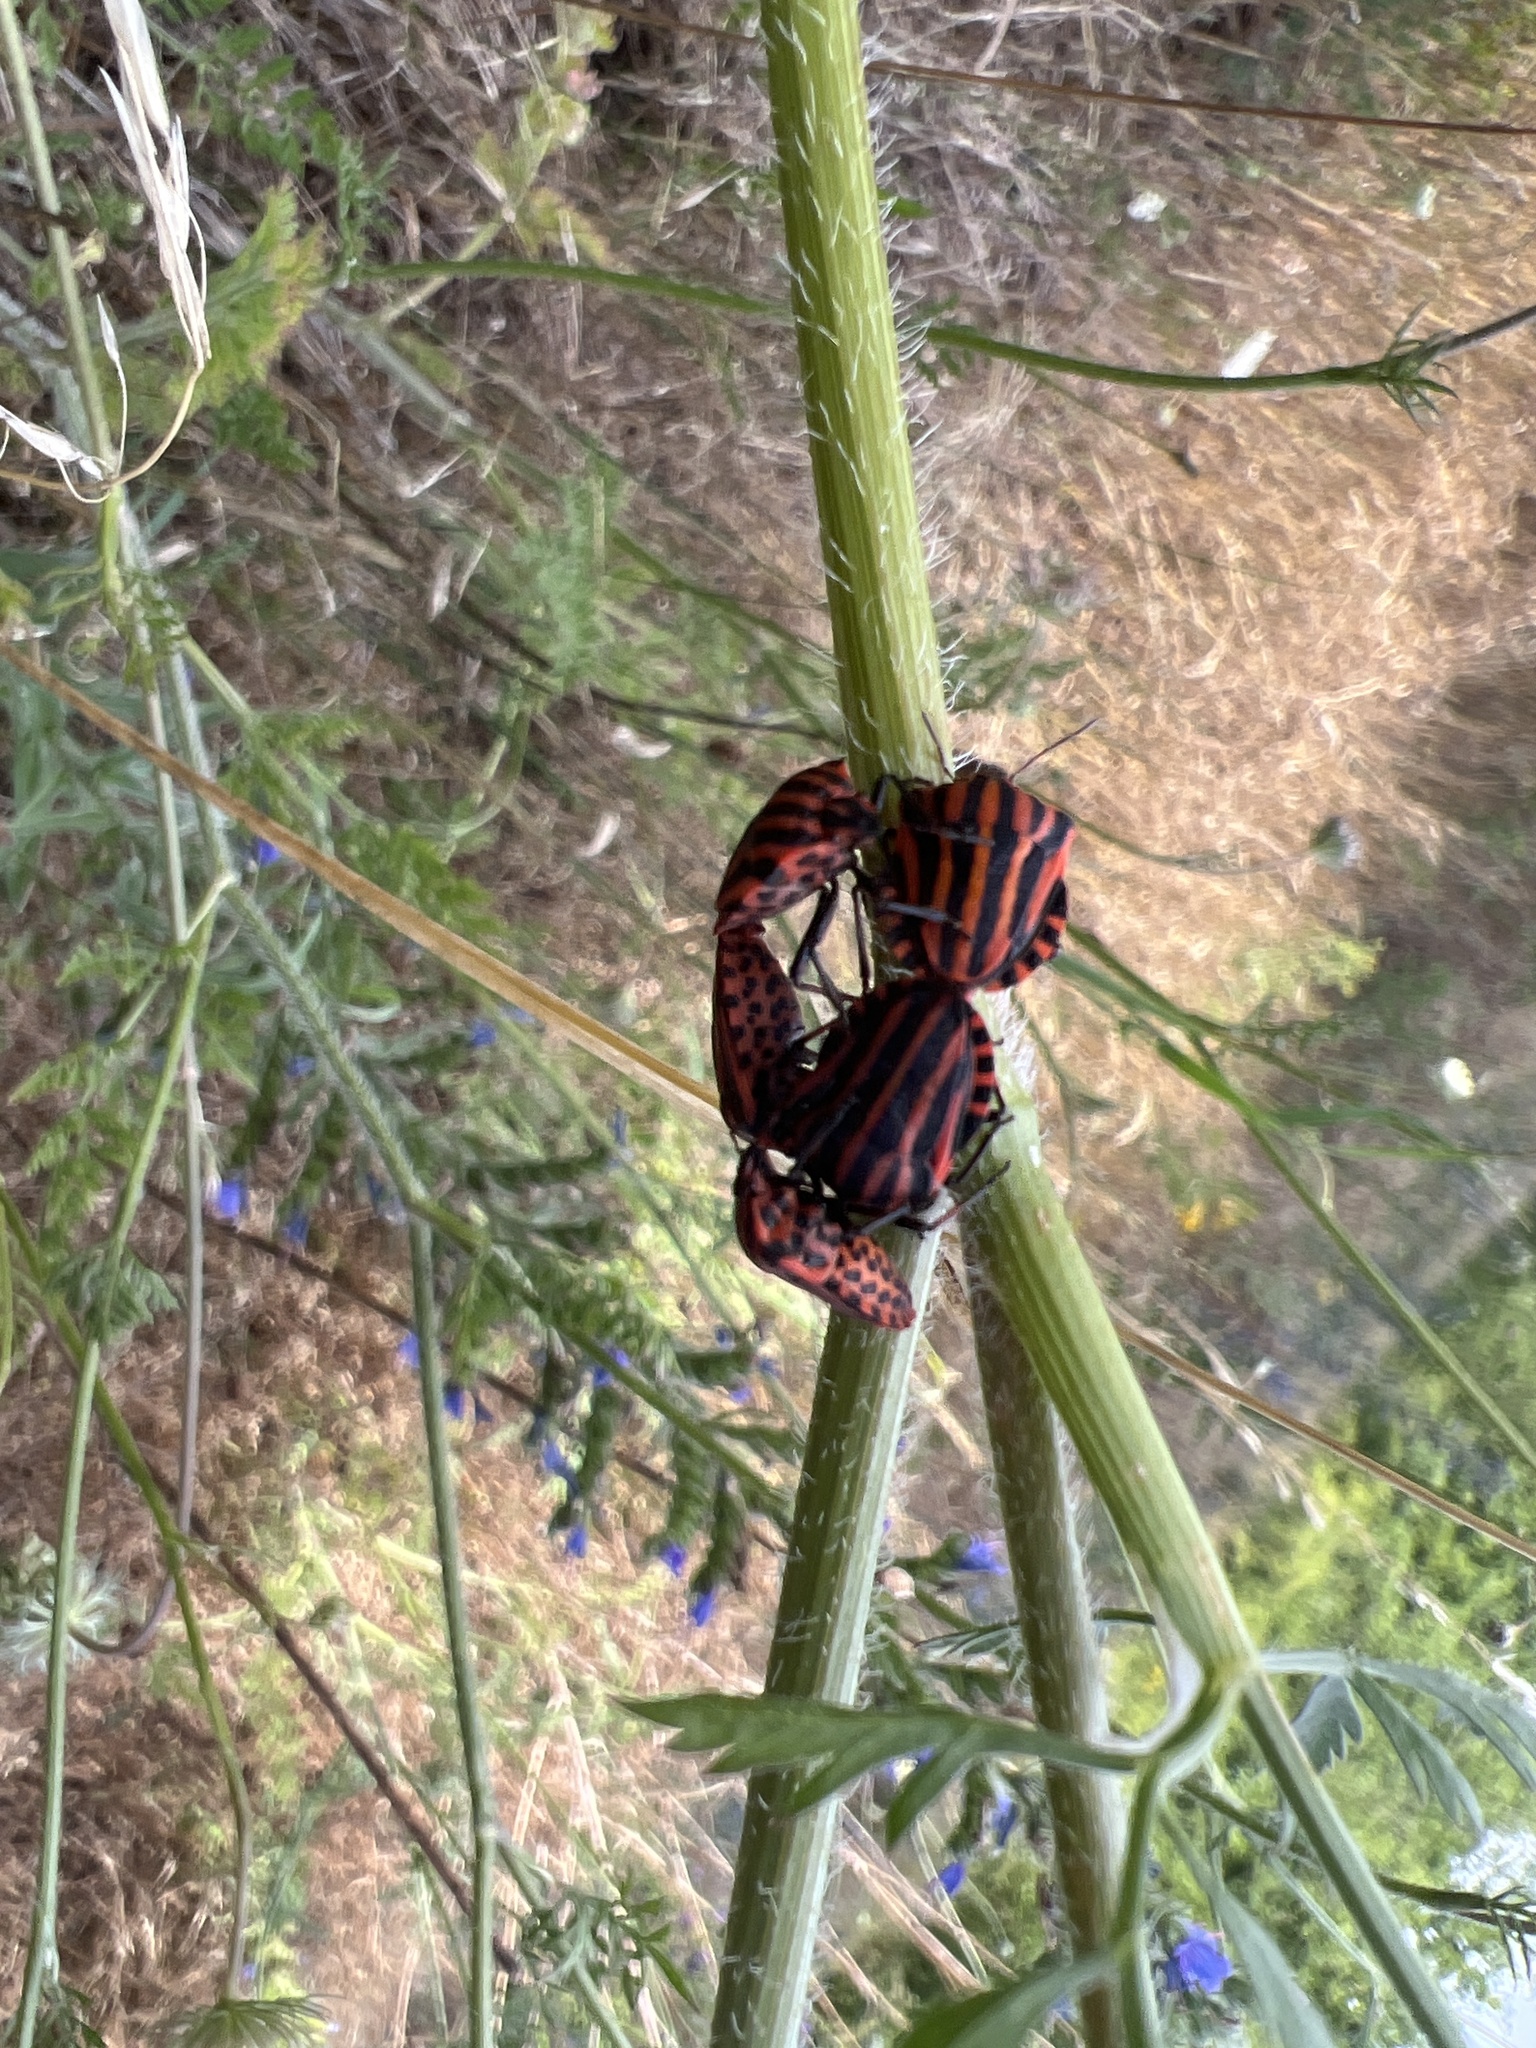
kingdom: Animalia
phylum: Arthropoda
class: Insecta
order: Hemiptera
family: Pentatomidae
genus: Graphosoma
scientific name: Graphosoma italicum
